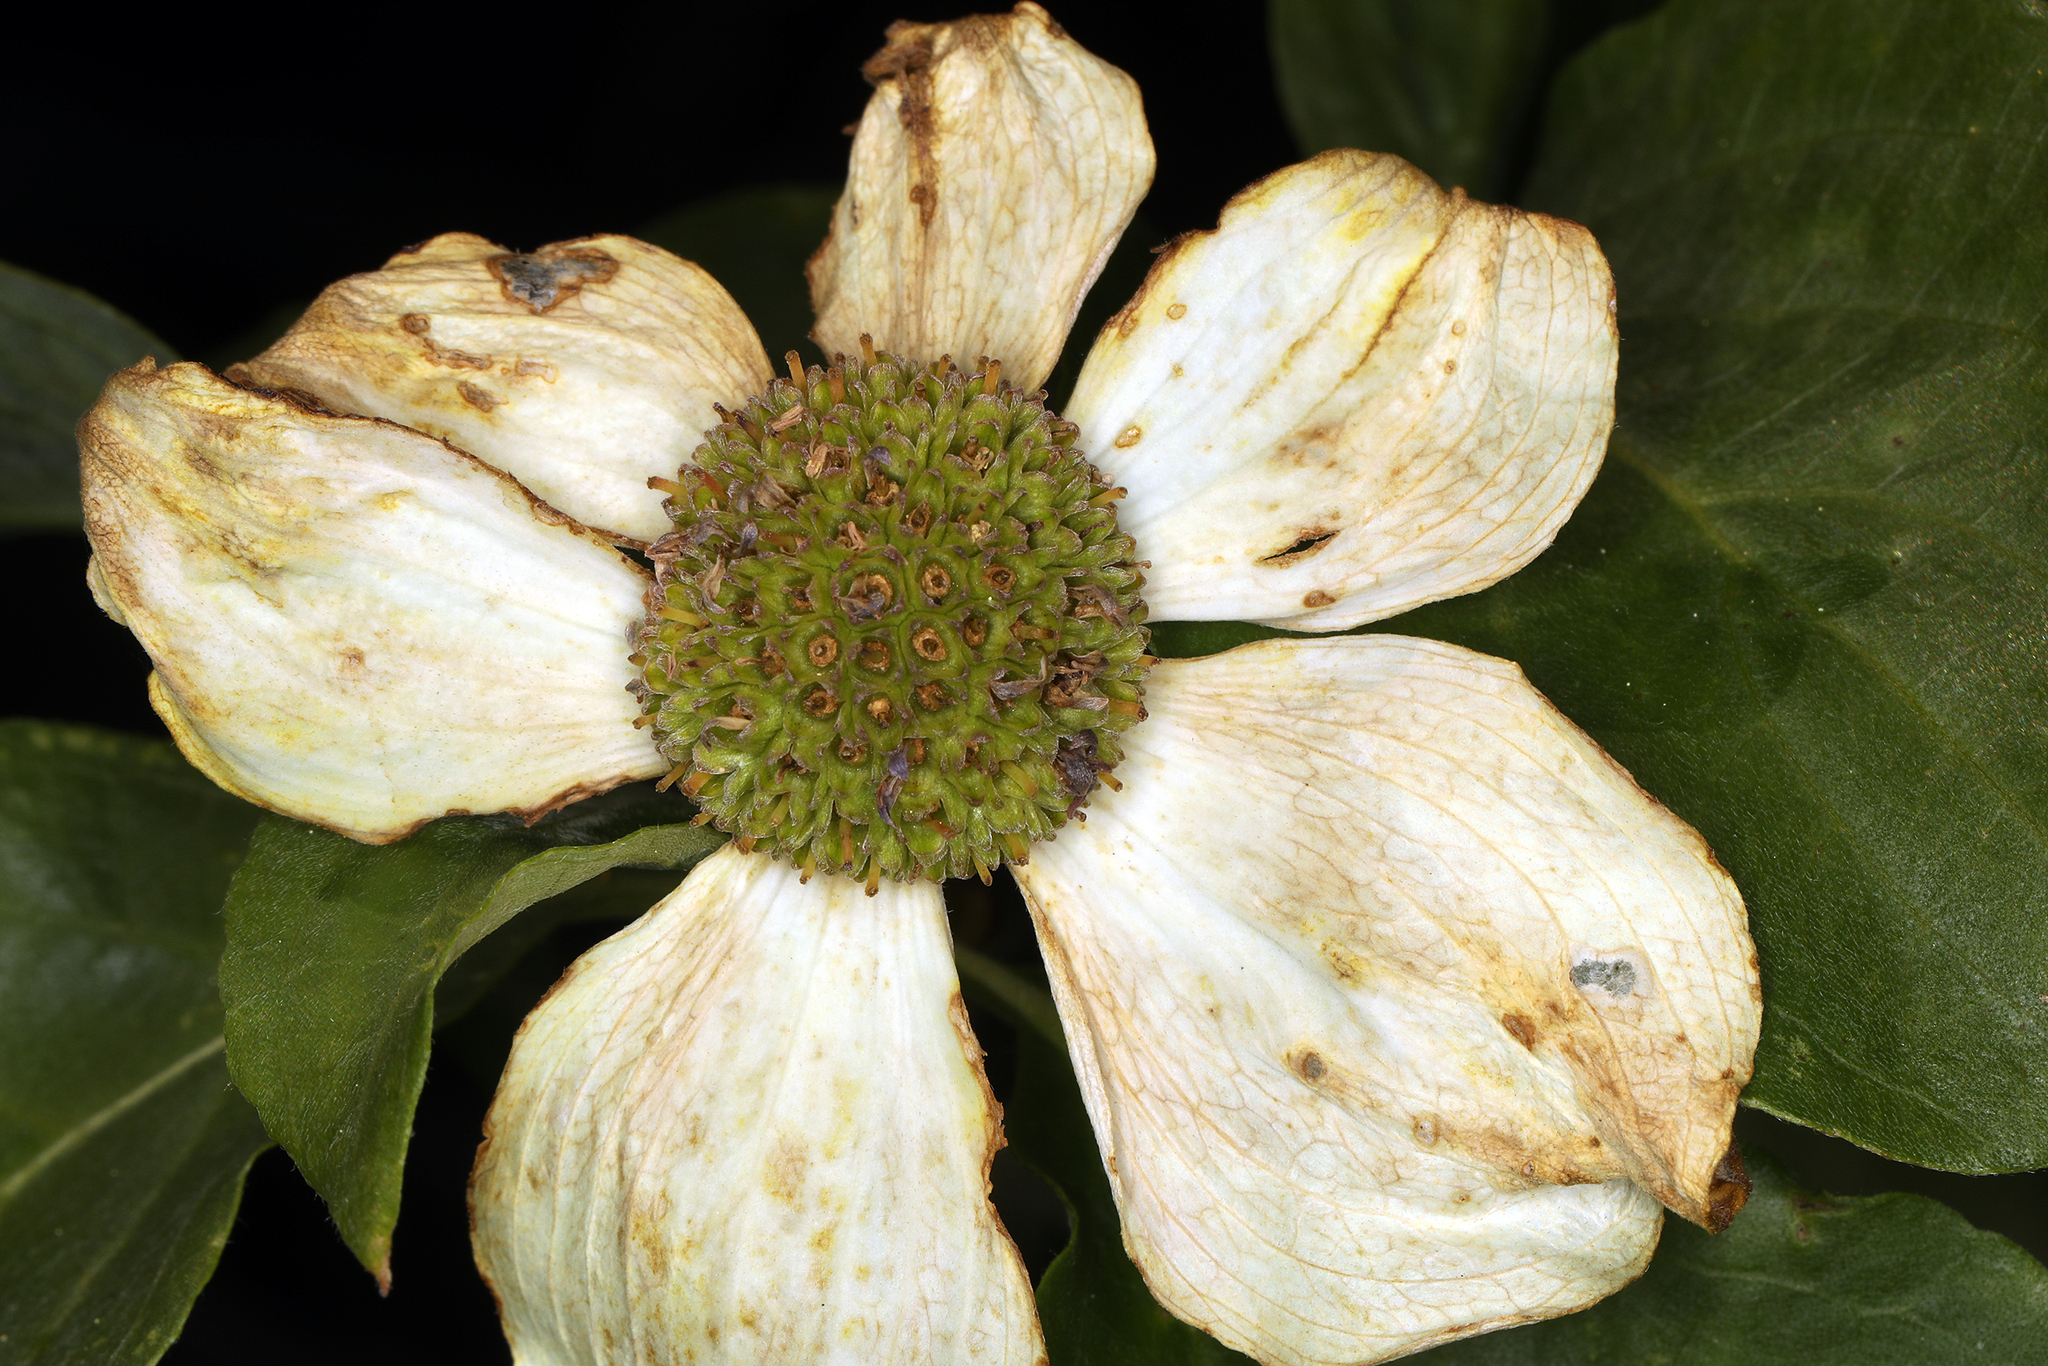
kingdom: Plantae
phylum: Tracheophyta
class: Magnoliopsida
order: Cornales
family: Cornaceae
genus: Cornus
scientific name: Cornus nuttallii
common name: Pacific dogwood
